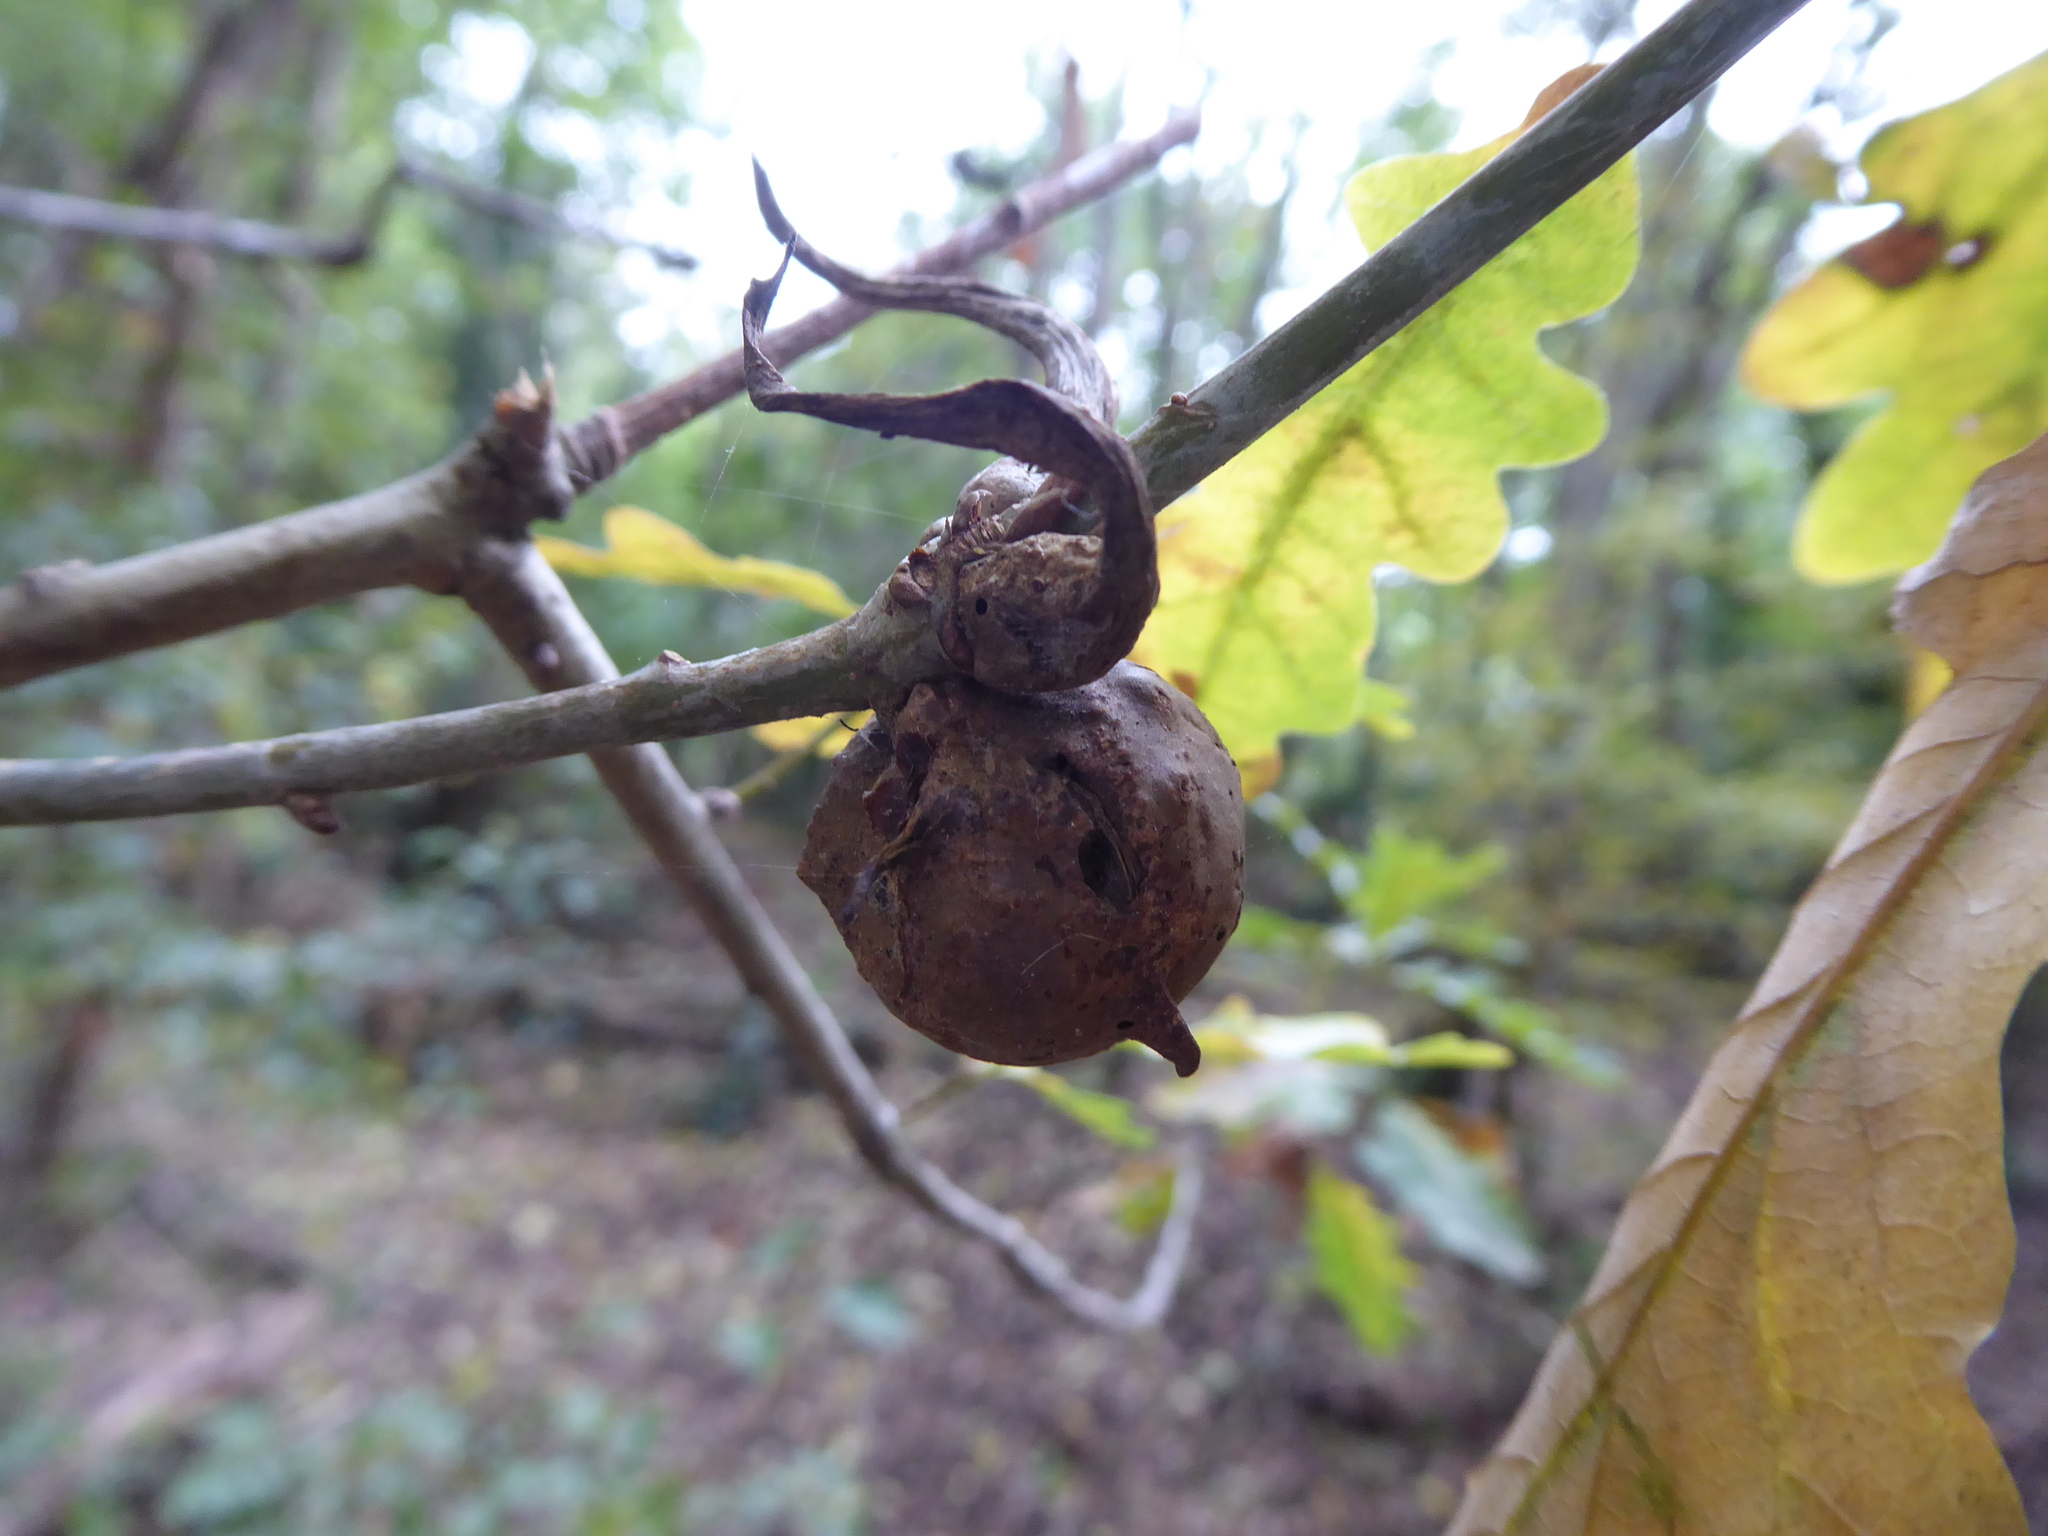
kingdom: Animalia
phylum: Arthropoda
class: Insecta
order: Hymenoptera
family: Cynipidae
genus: Andricus
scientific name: Andricus aries
